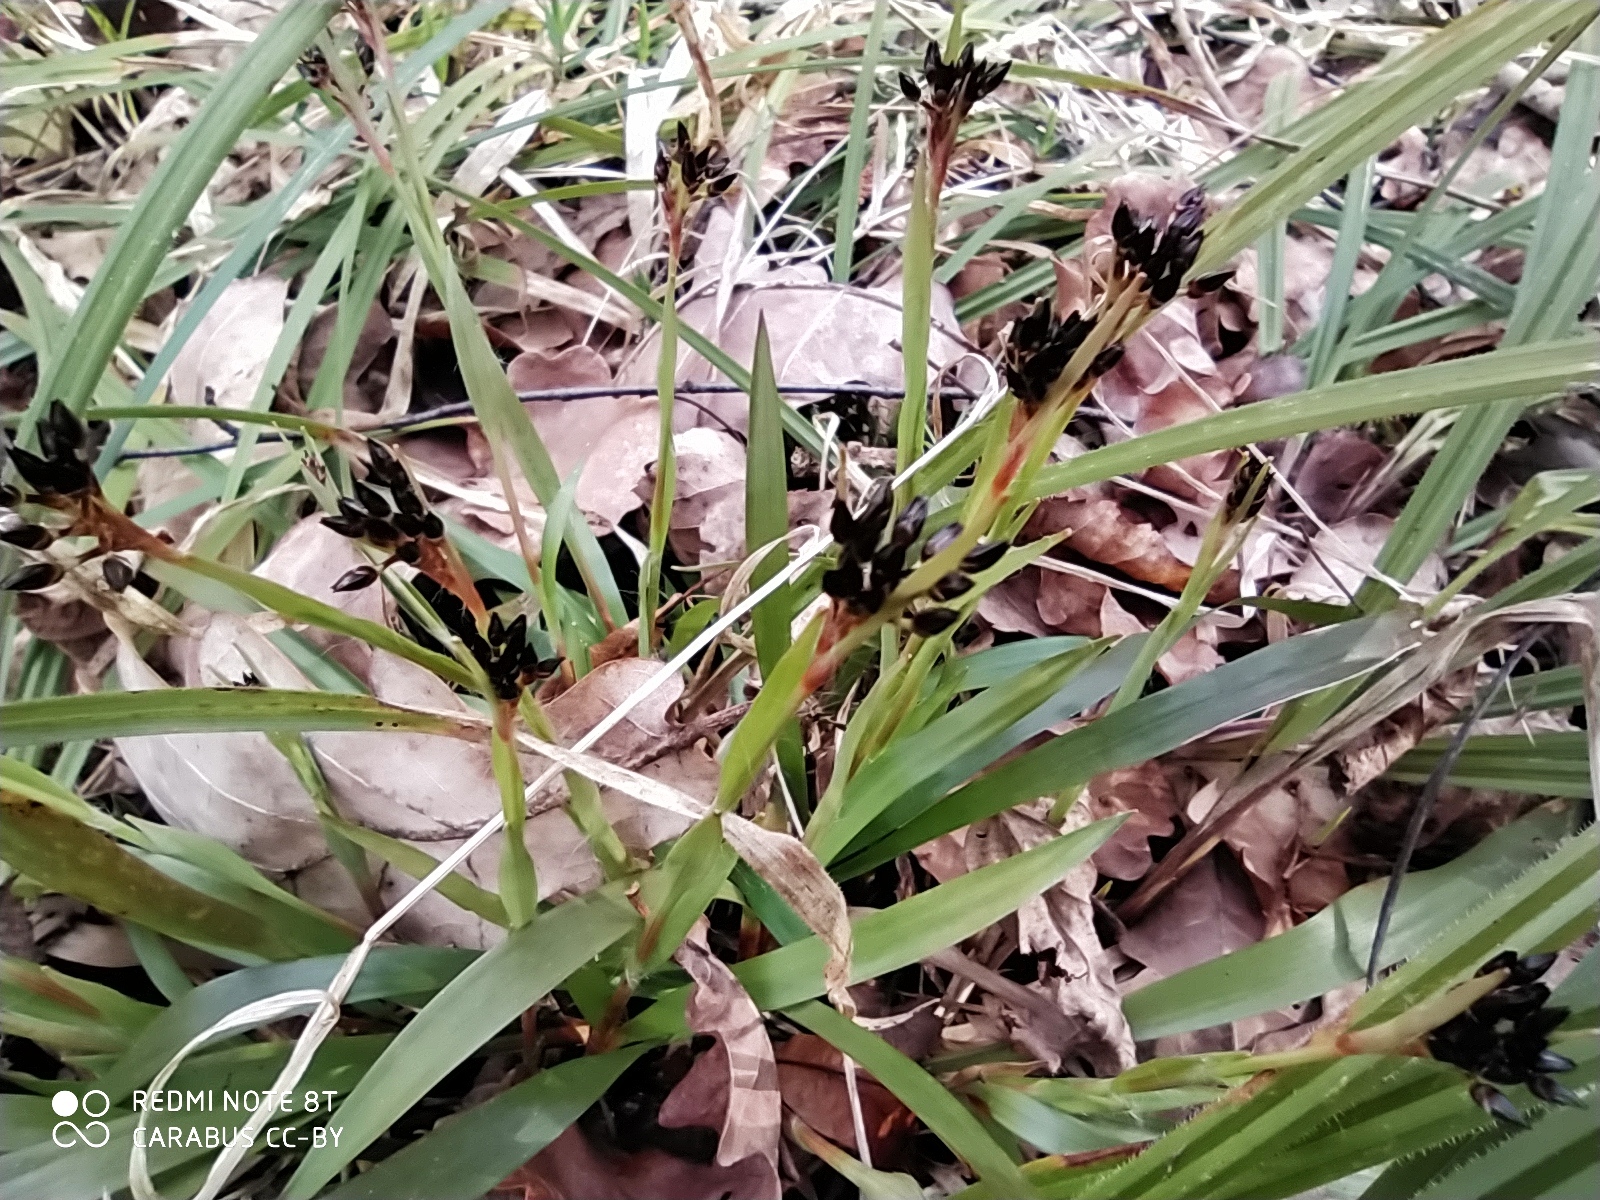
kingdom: Plantae
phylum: Tracheophyta
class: Liliopsida
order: Poales
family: Juncaceae
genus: Luzula
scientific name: Luzula pilosa
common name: Hairy wood-rush
